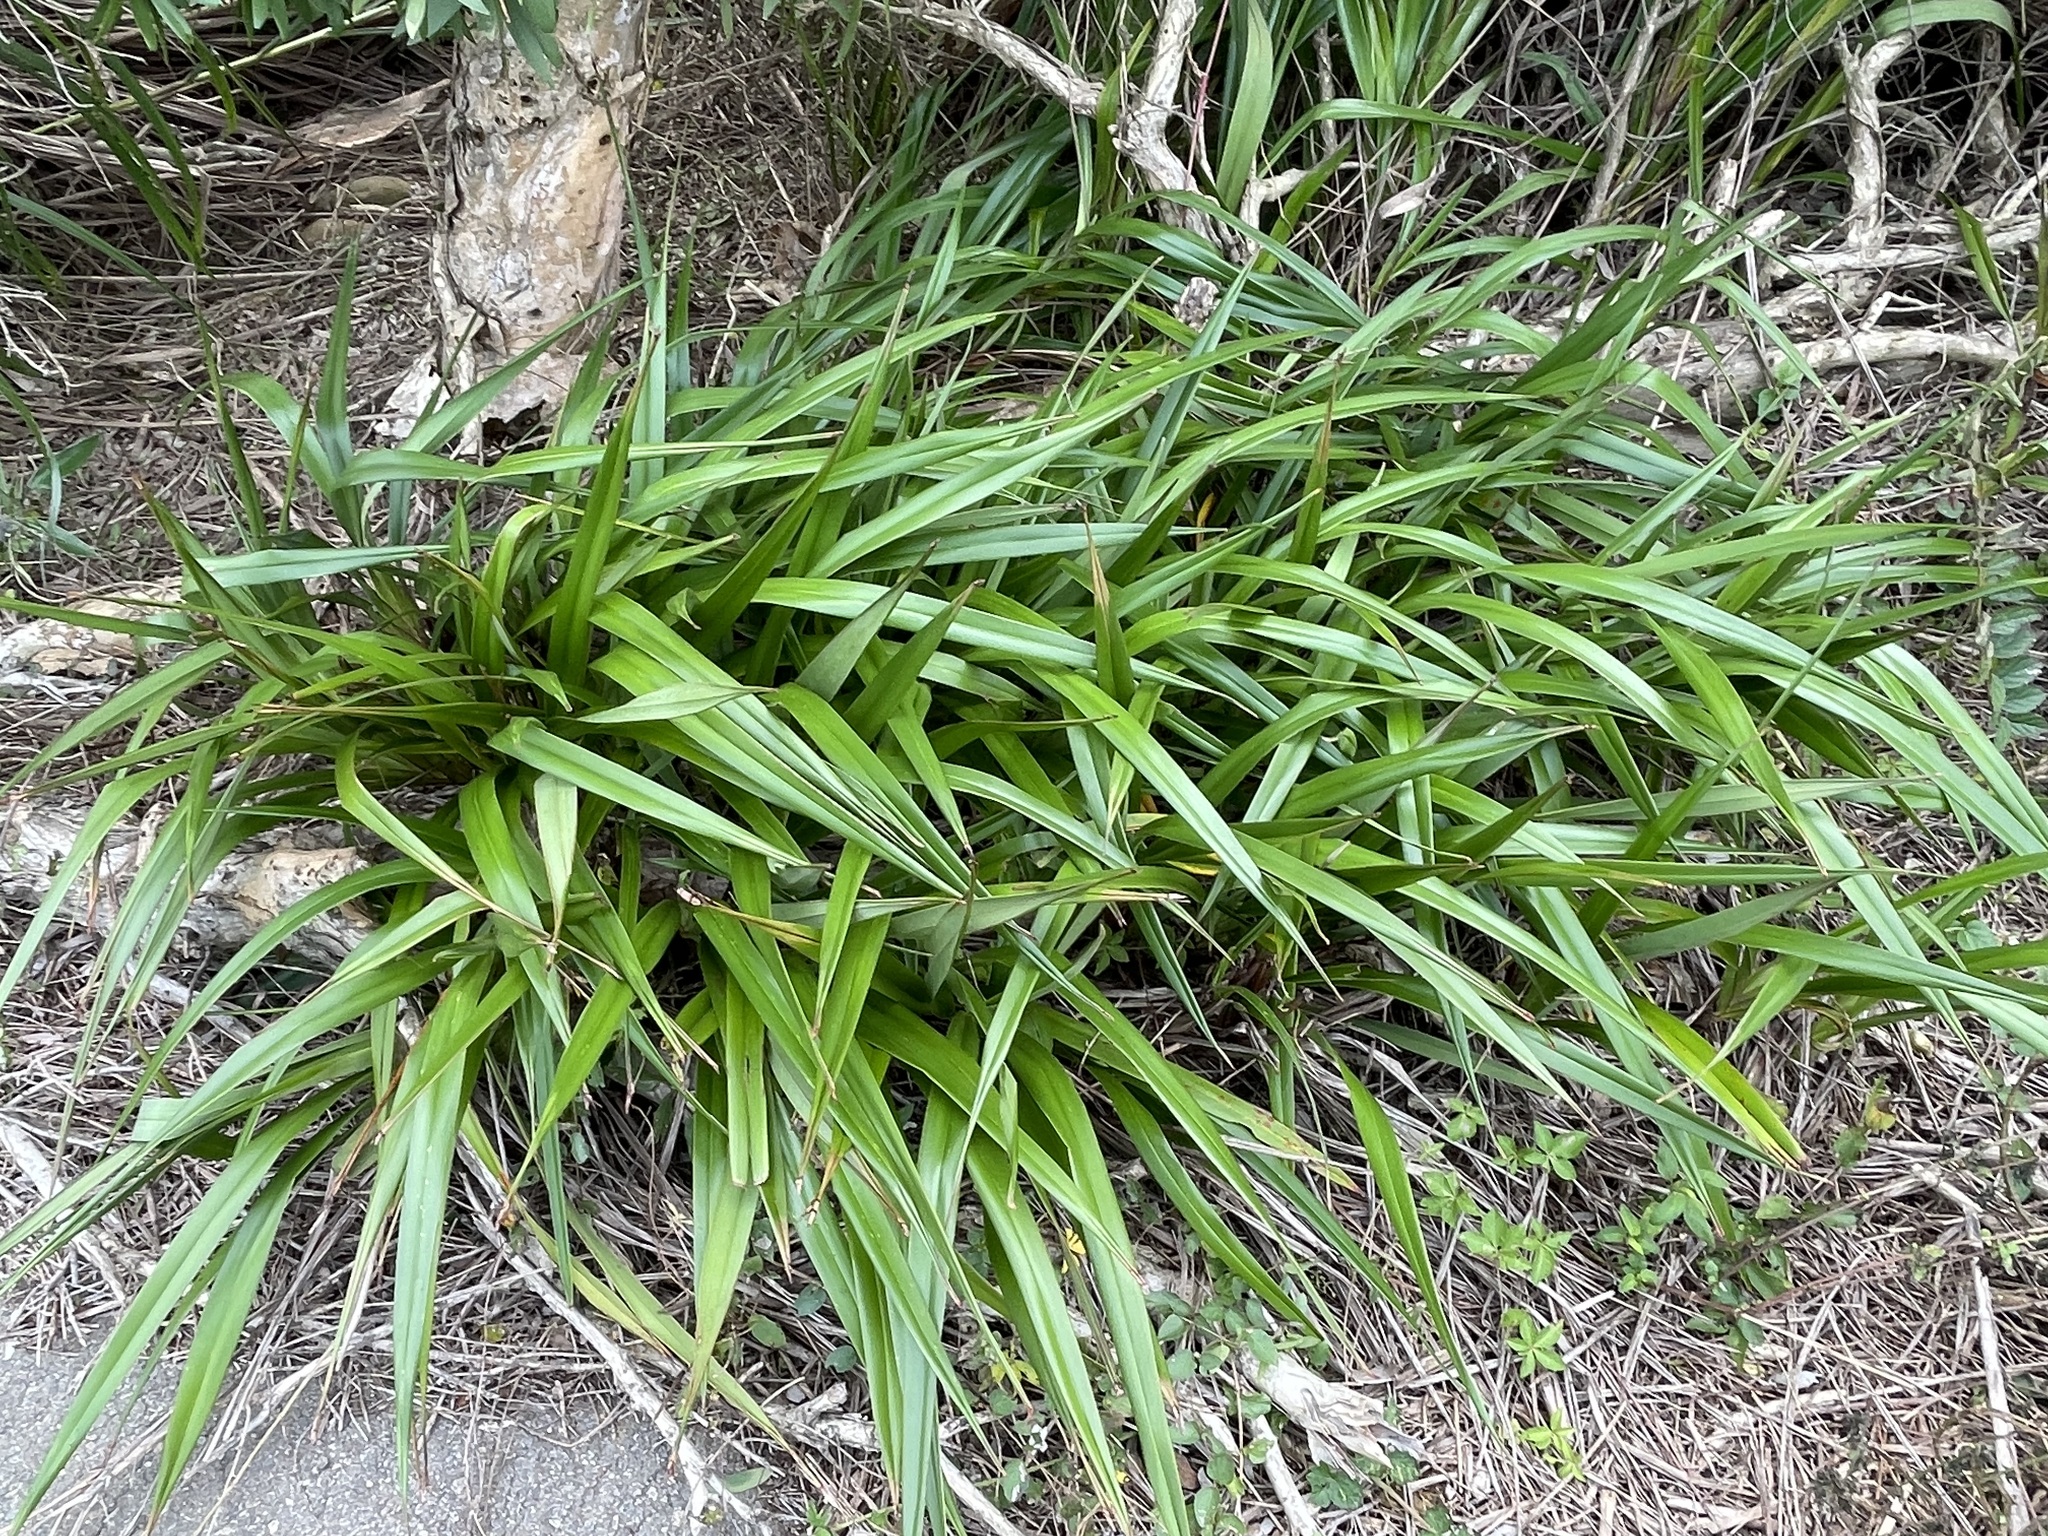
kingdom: Plantae
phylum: Tracheophyta
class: Liliopsida
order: Asparagales
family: Asphodelaceae
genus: Dianella
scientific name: Dianella ensifolia
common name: New zealand lilyplant
